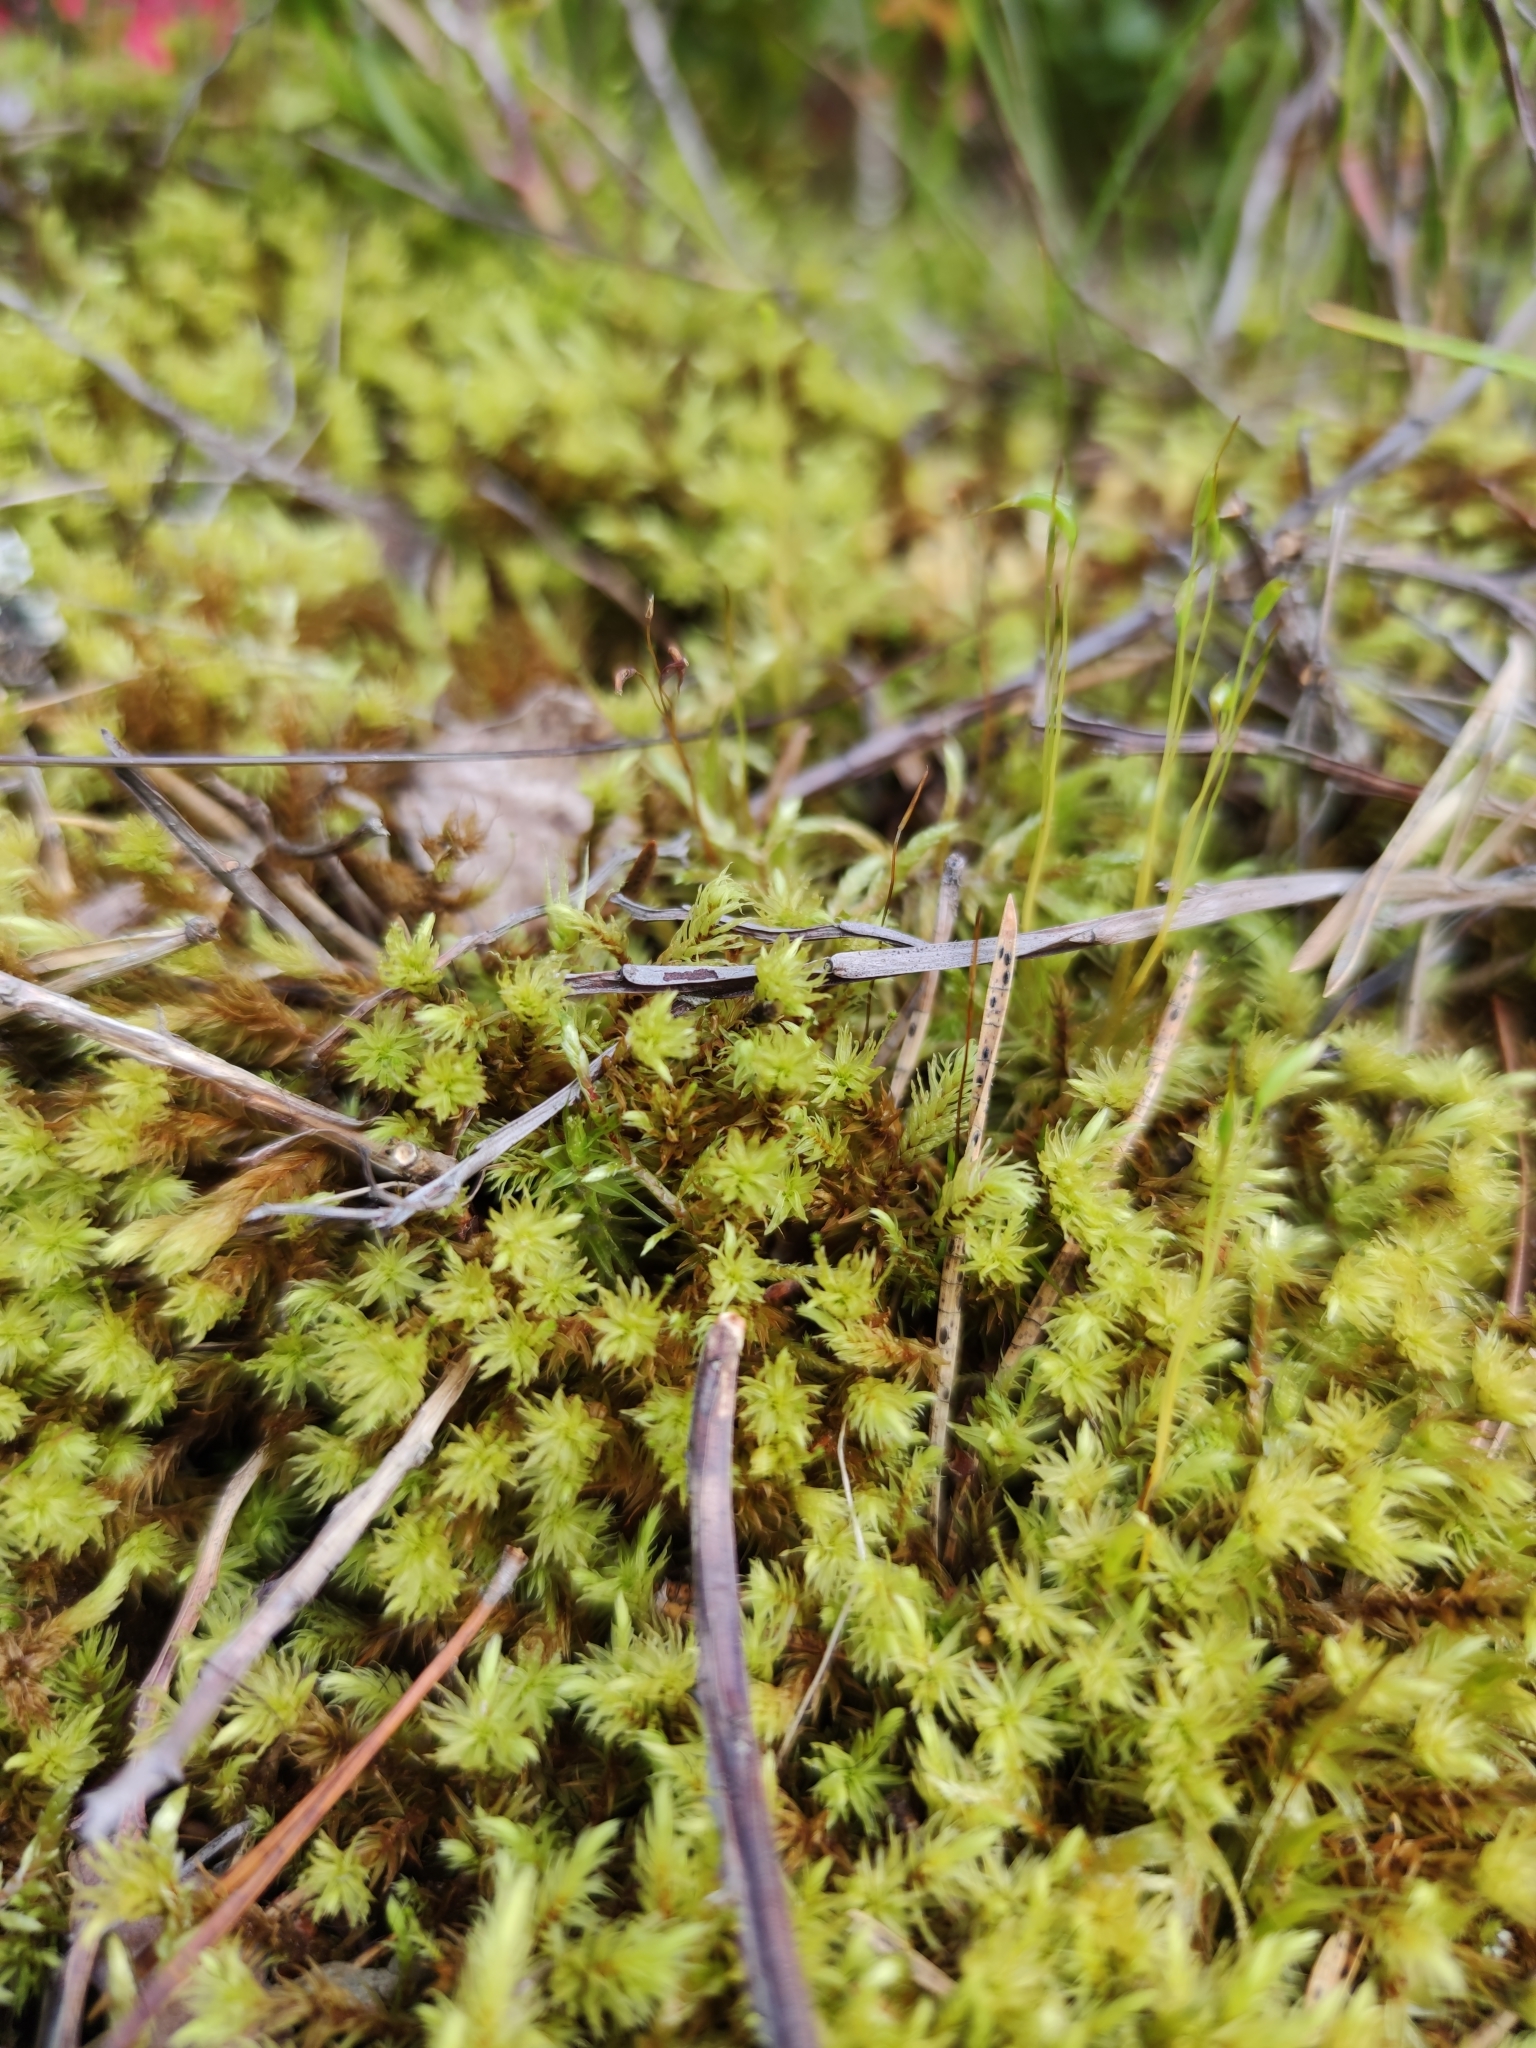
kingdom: Plantae
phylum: Bryophyta
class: Bryopsida
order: Aulacomniales
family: Aulacomniaceae
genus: Aulacomnium
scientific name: Aulacomnium palustre
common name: Bog groove-moss
